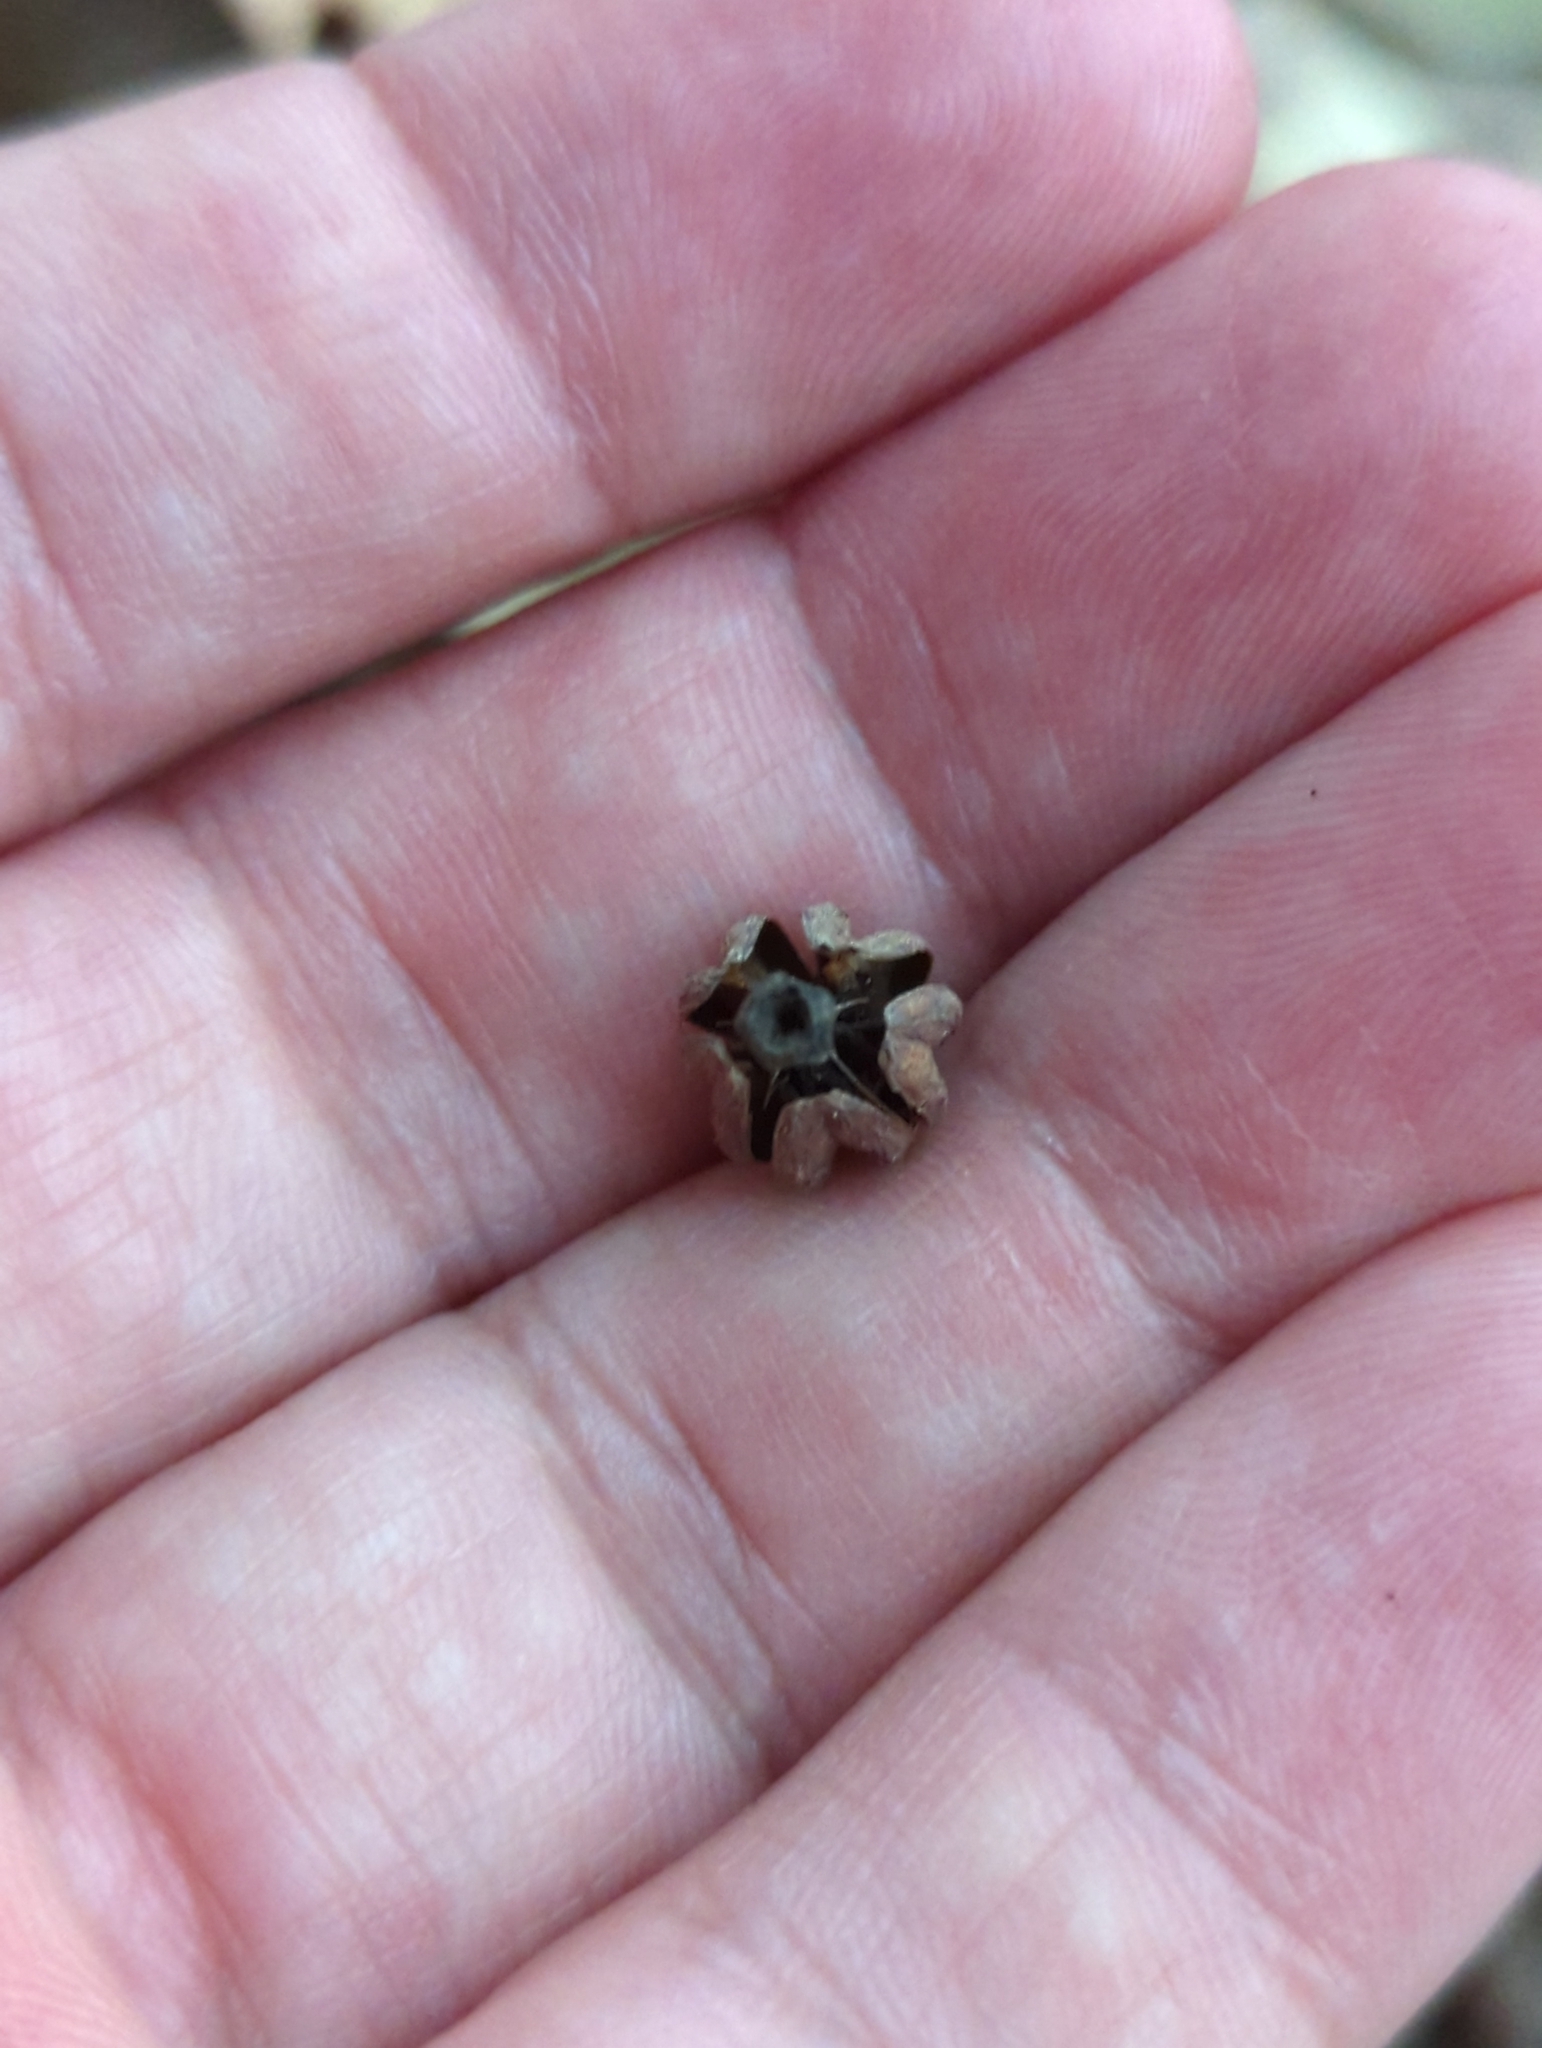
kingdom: Plantae
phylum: Tracheophyta
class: Magnoliopsida
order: Ericales
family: Ericaceae
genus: Monotropa
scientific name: Monotropa uniflora
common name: Convulsion root
